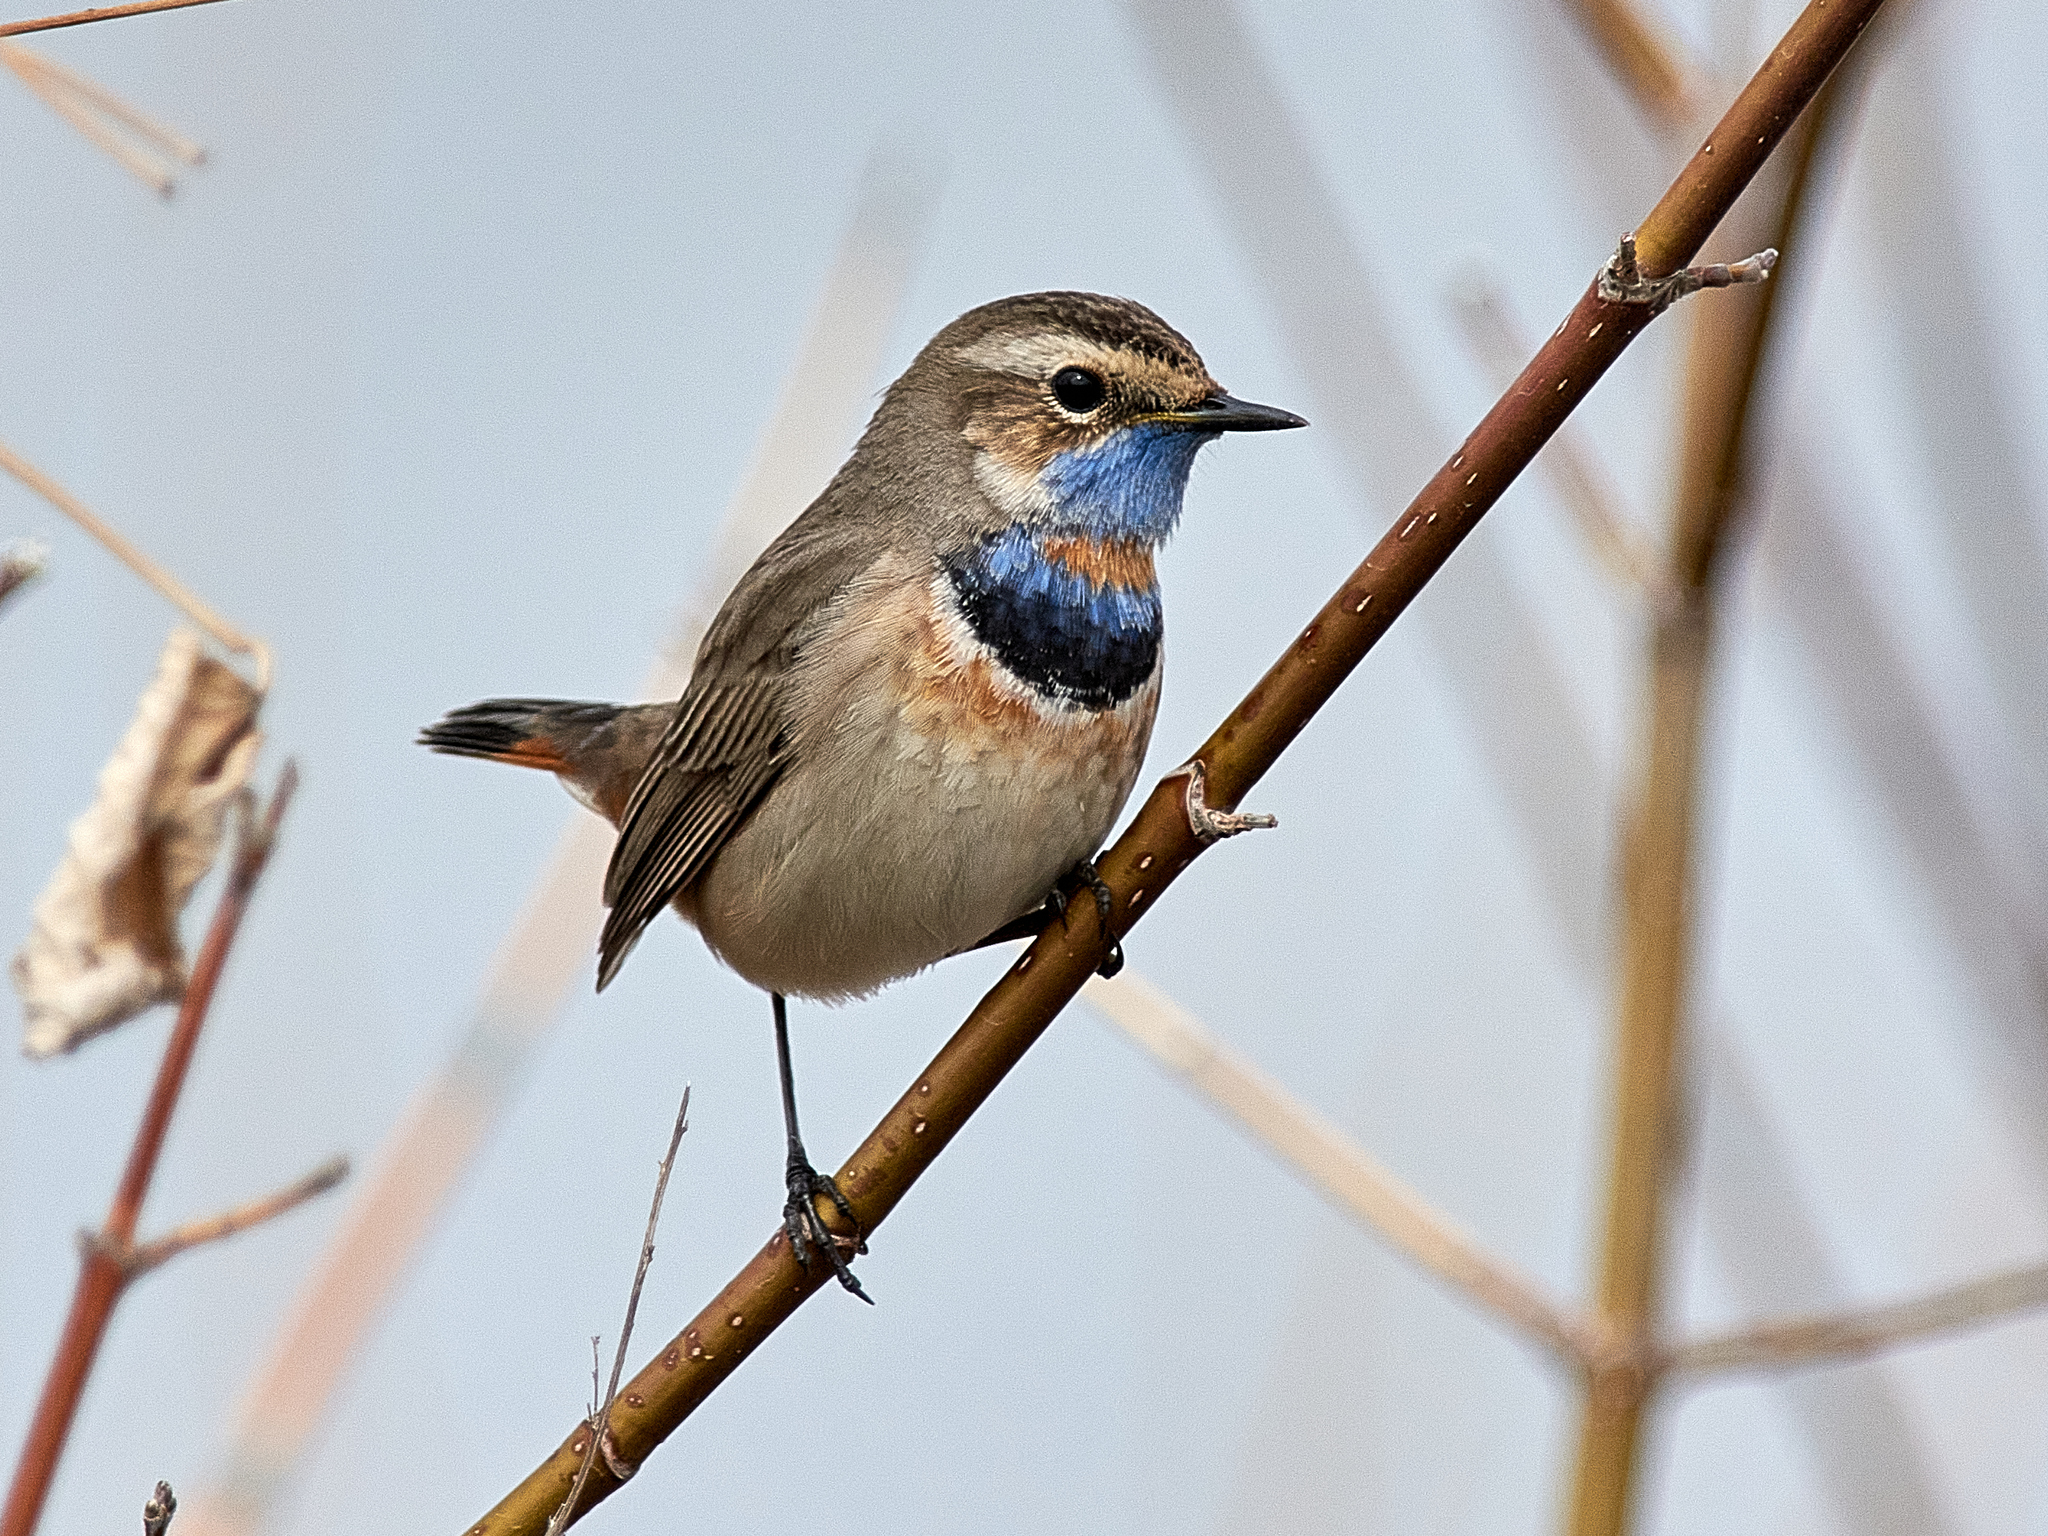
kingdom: Animalia
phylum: Chordata
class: Aves
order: Passeriformes
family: Muscicapidae
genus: Luscinia
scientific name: Luscinia svecica
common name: Bluethroat
